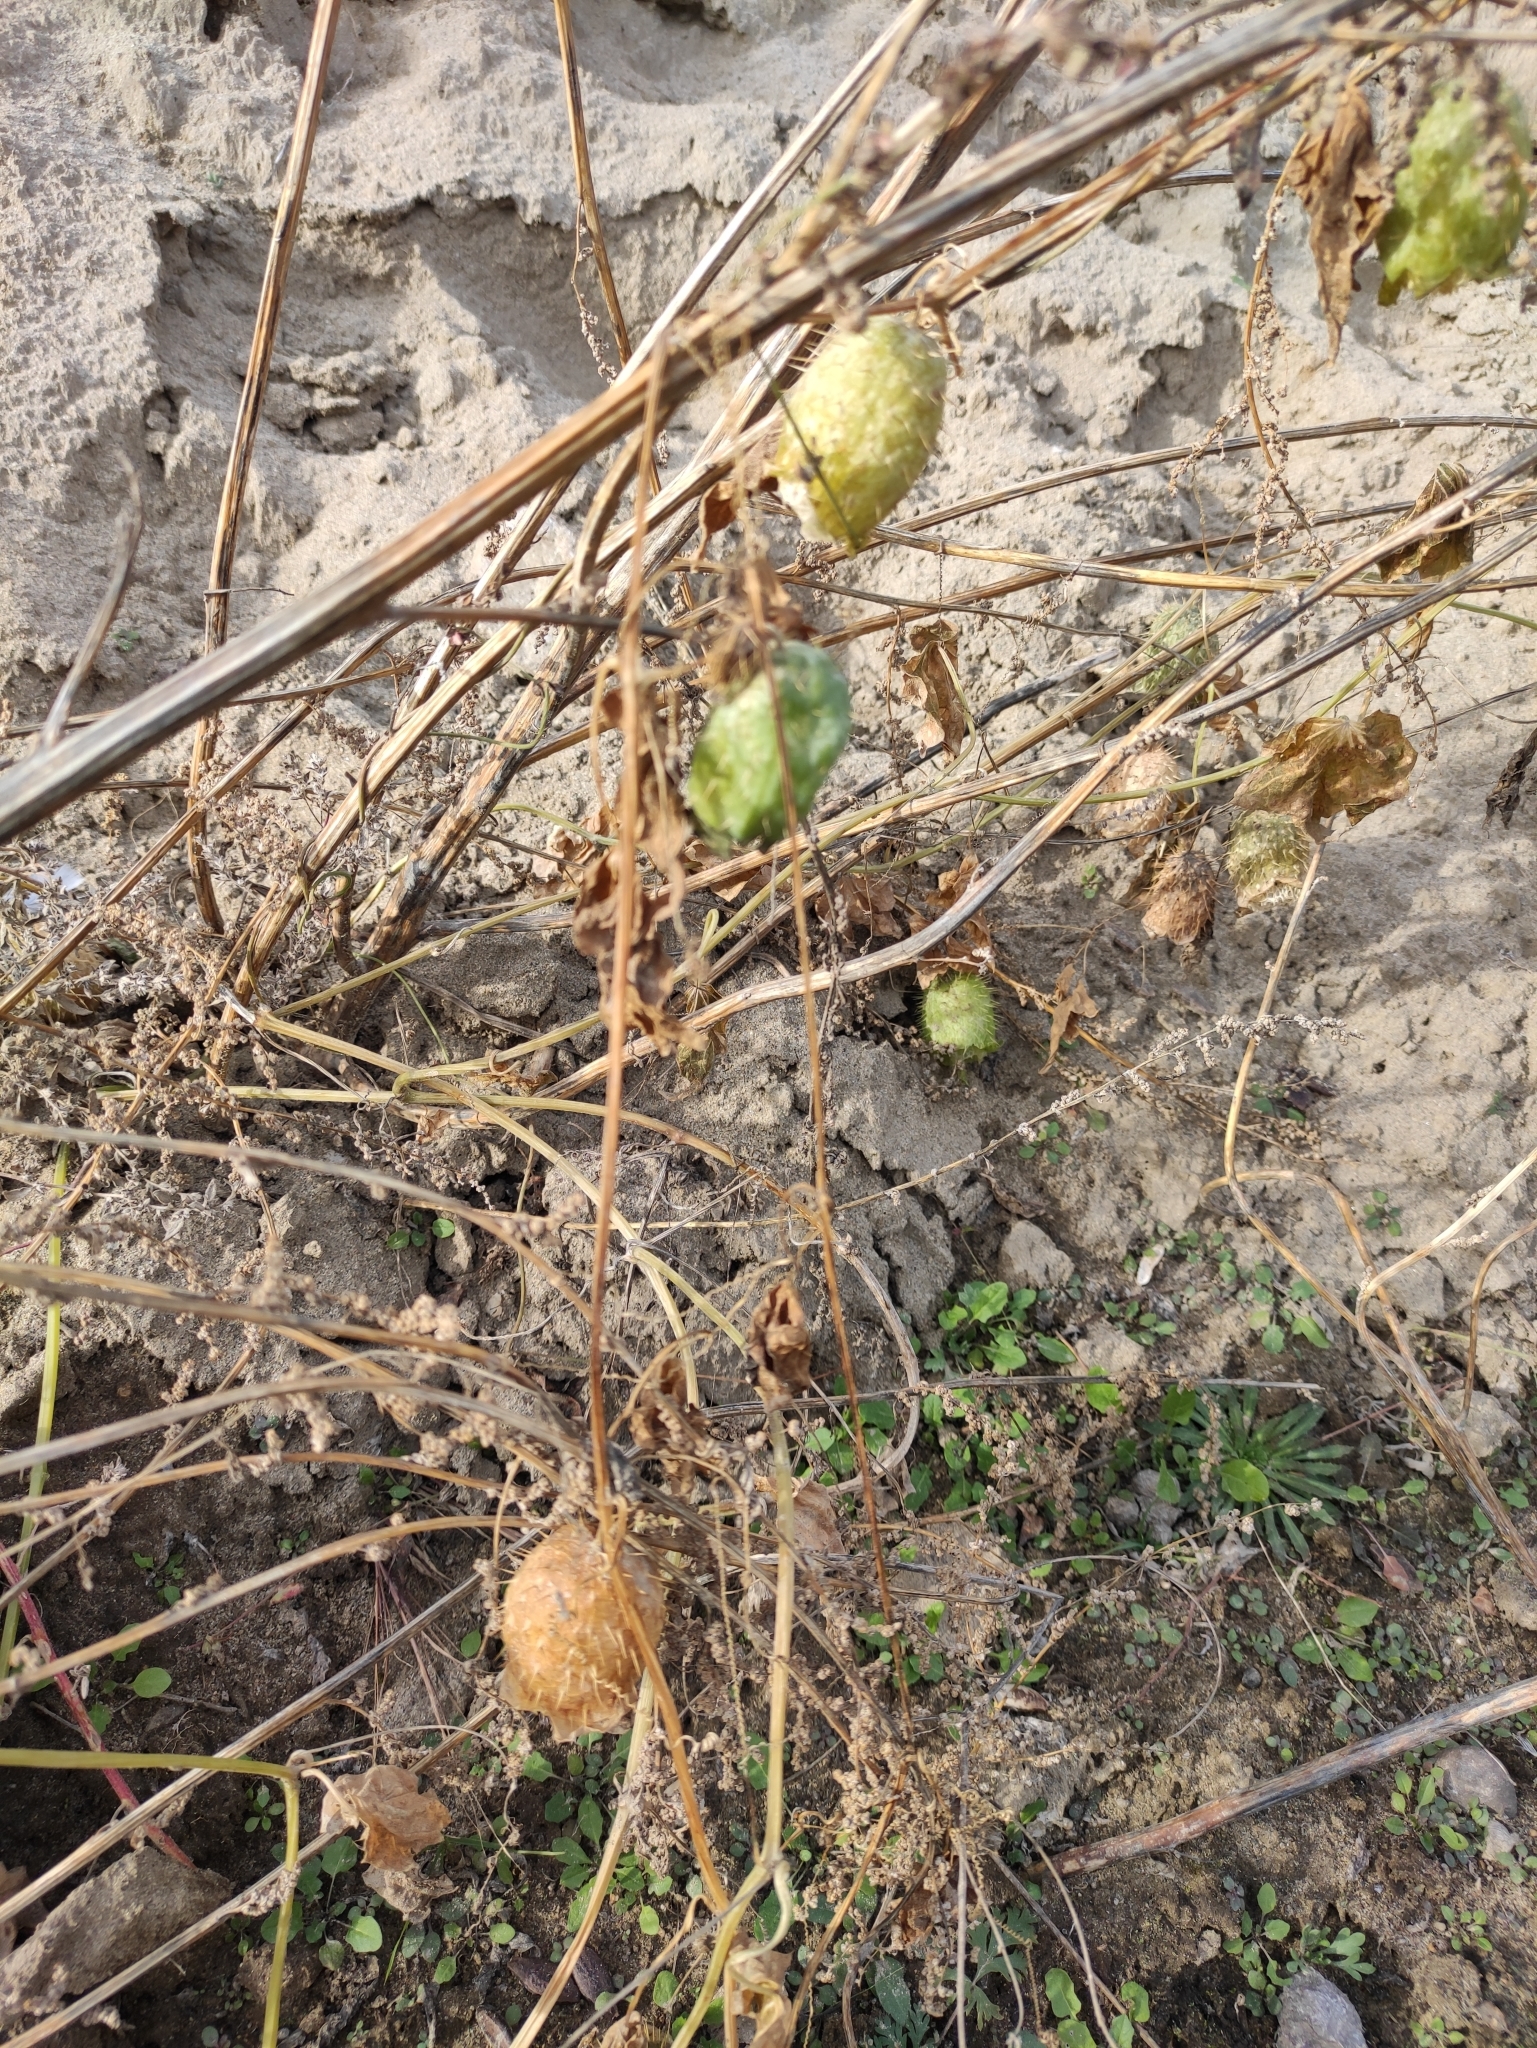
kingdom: Plantae
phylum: Tracheophyta
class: Magnoliopsida
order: Cucurbitales
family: Cucurbitaceae
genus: Echinocystis
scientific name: Echinocystis lobata
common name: Wild cucumber
